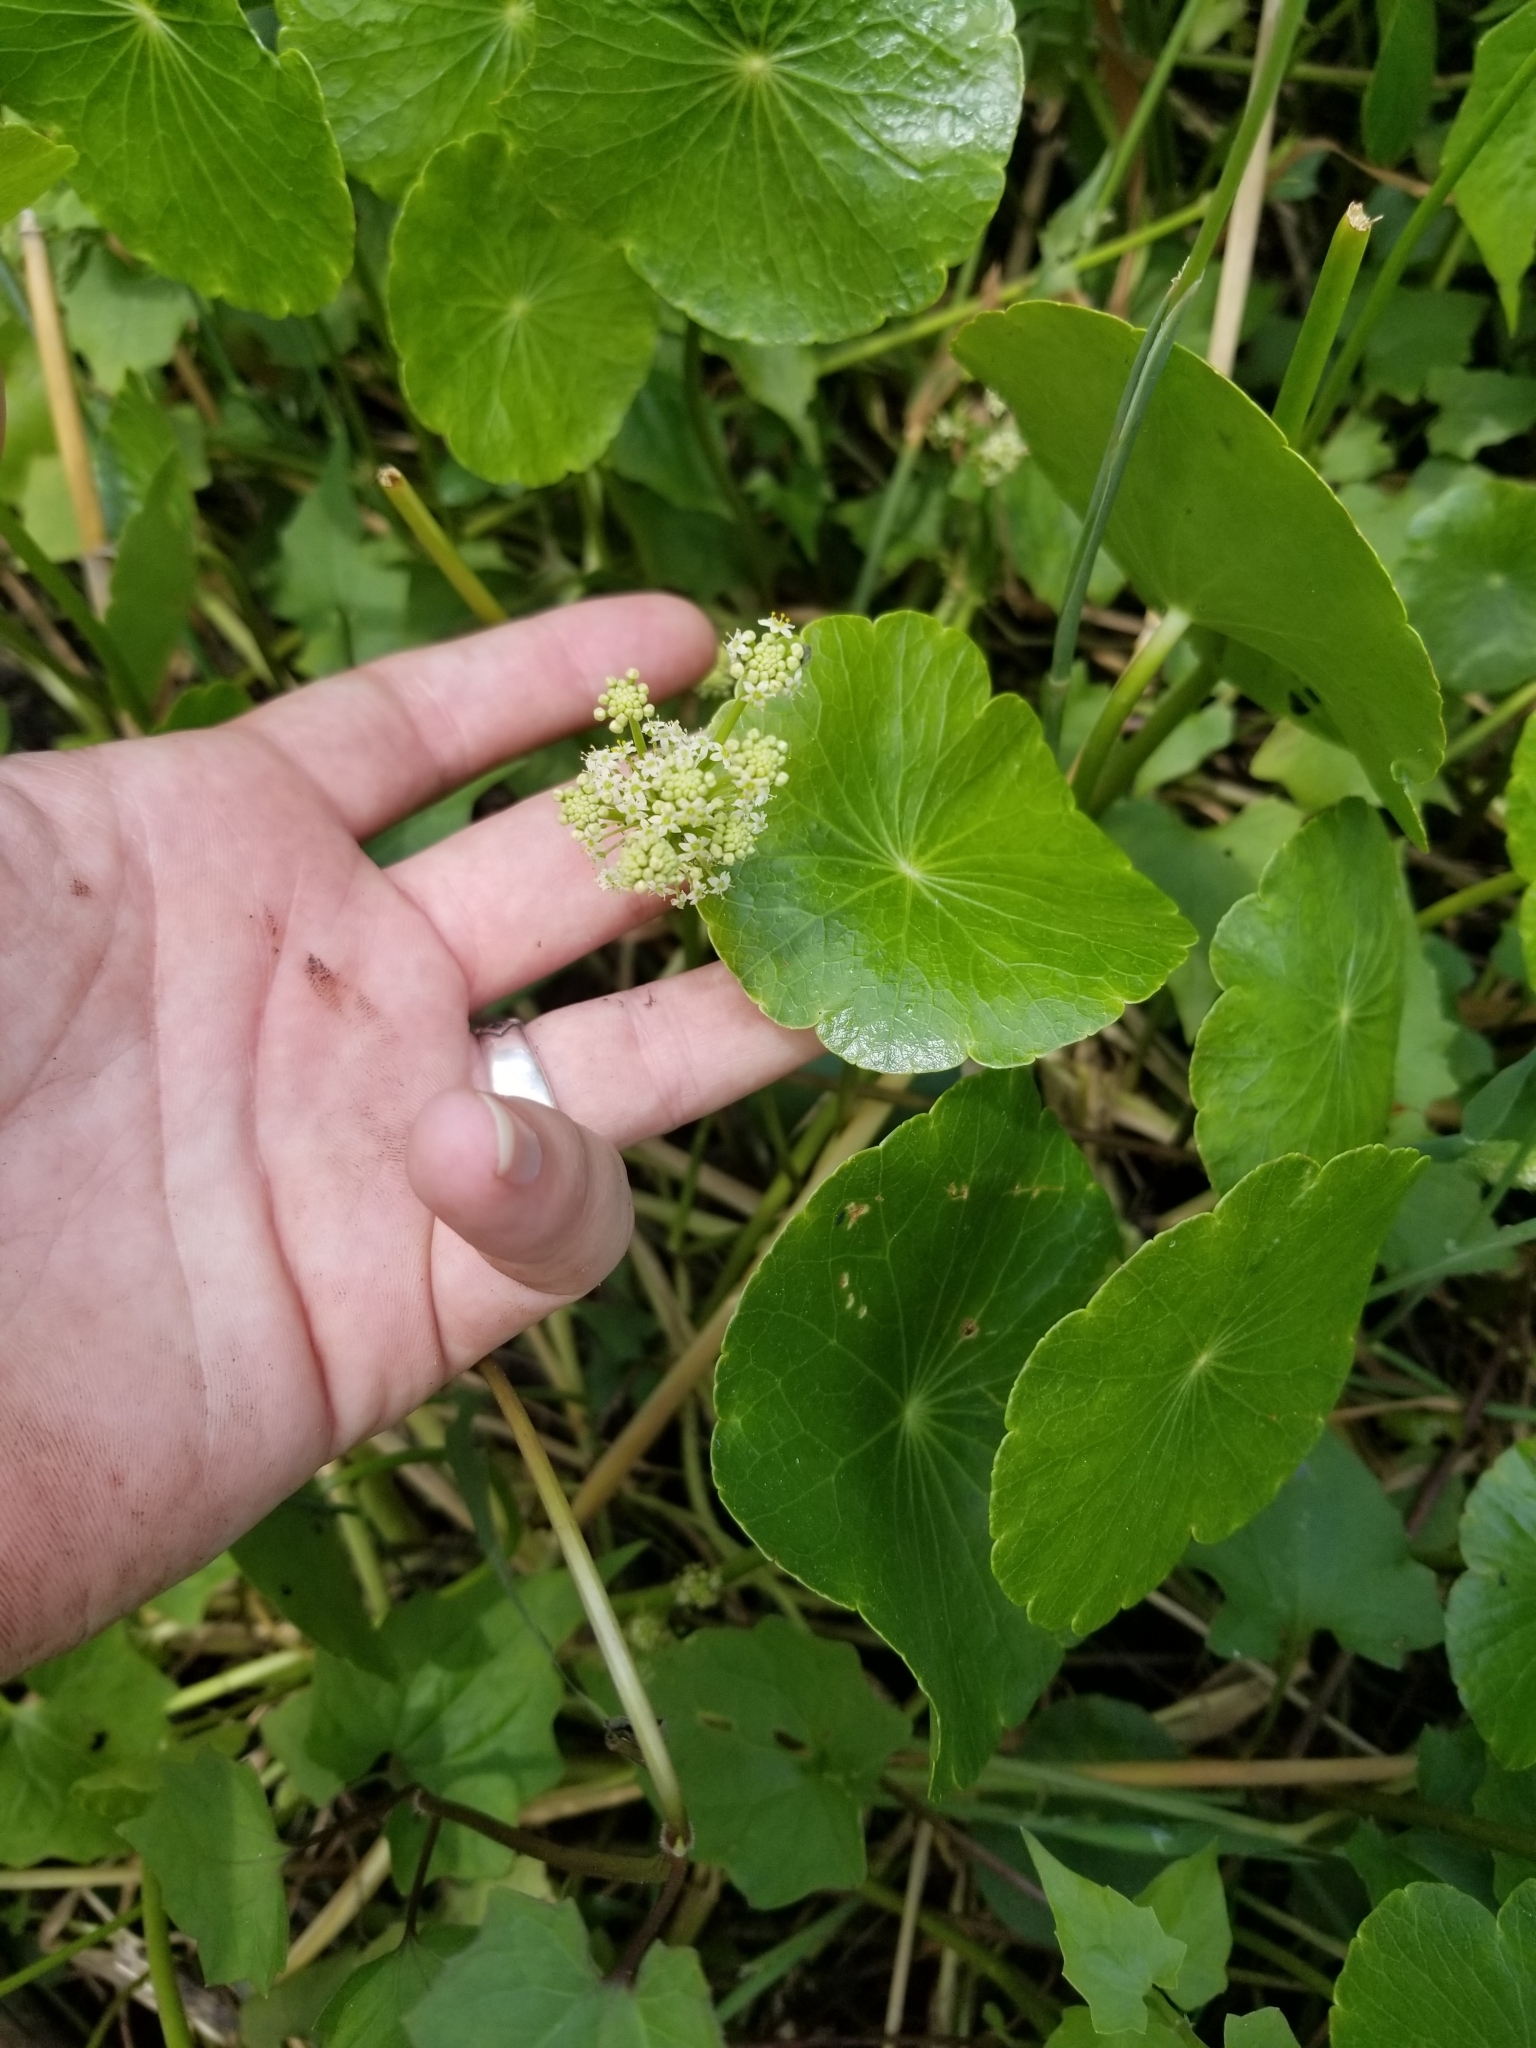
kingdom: Plantae
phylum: Tracheophyta
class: Magnoliopsida
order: Apiales
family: Araliaceae
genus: Hydrocotyle
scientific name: Hydrocotyle bonariensis
